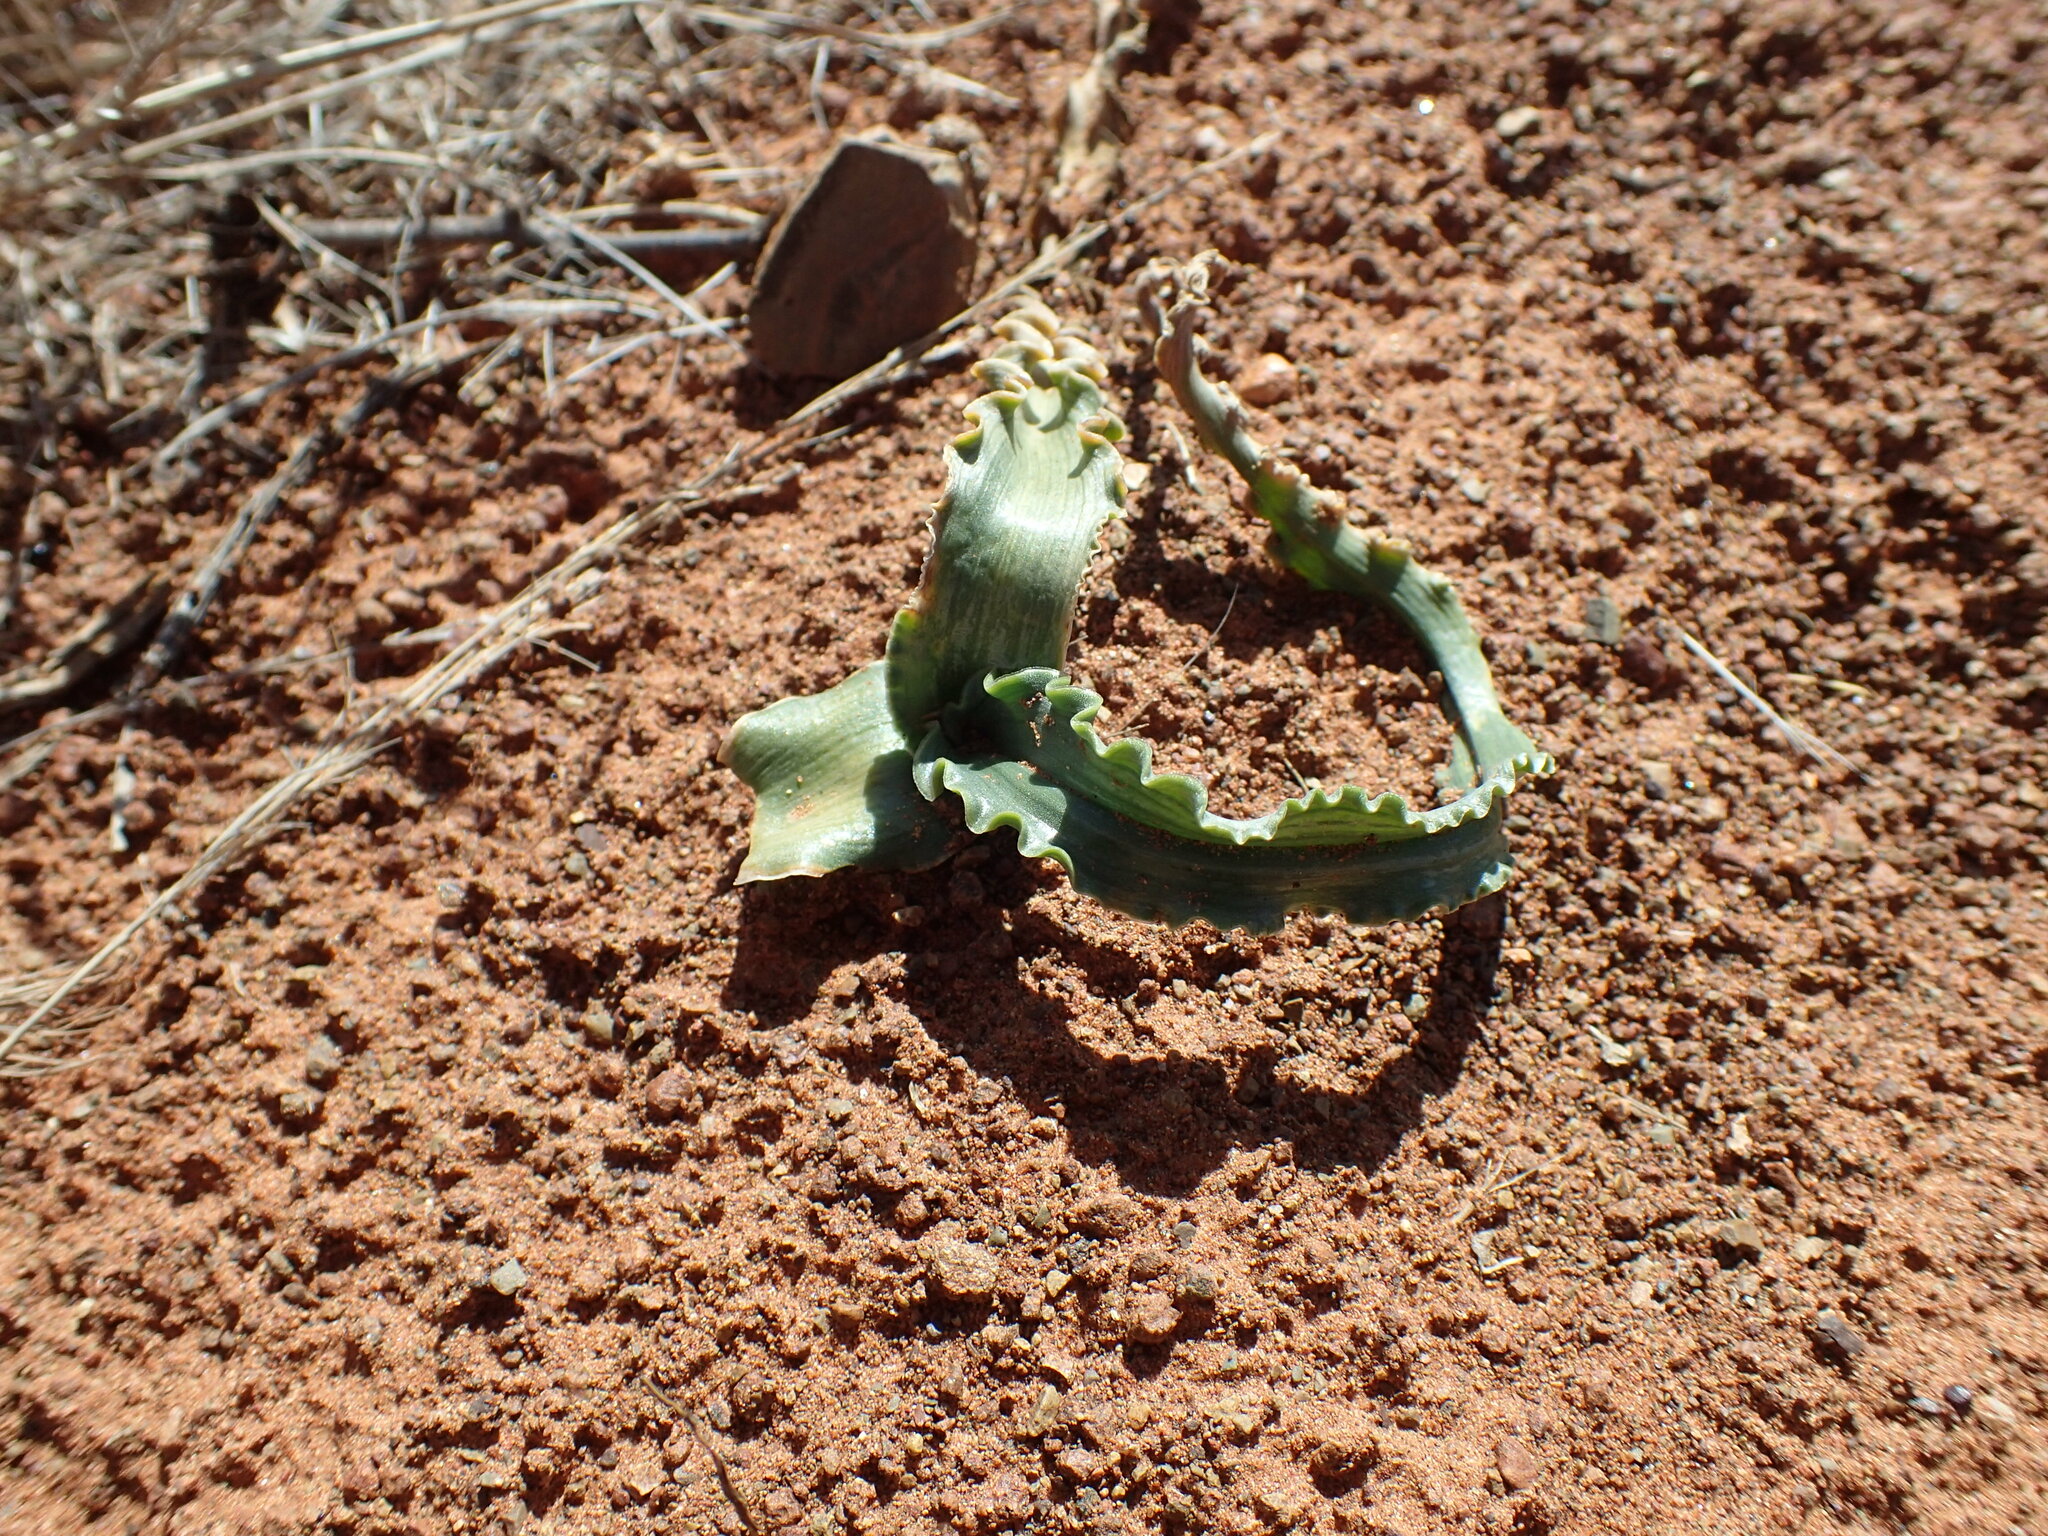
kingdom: Plantae
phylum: Tracheophyta
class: Liliopsida
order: Asparagales
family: Asparagaceae
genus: Albuca
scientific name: Albuca crispa
